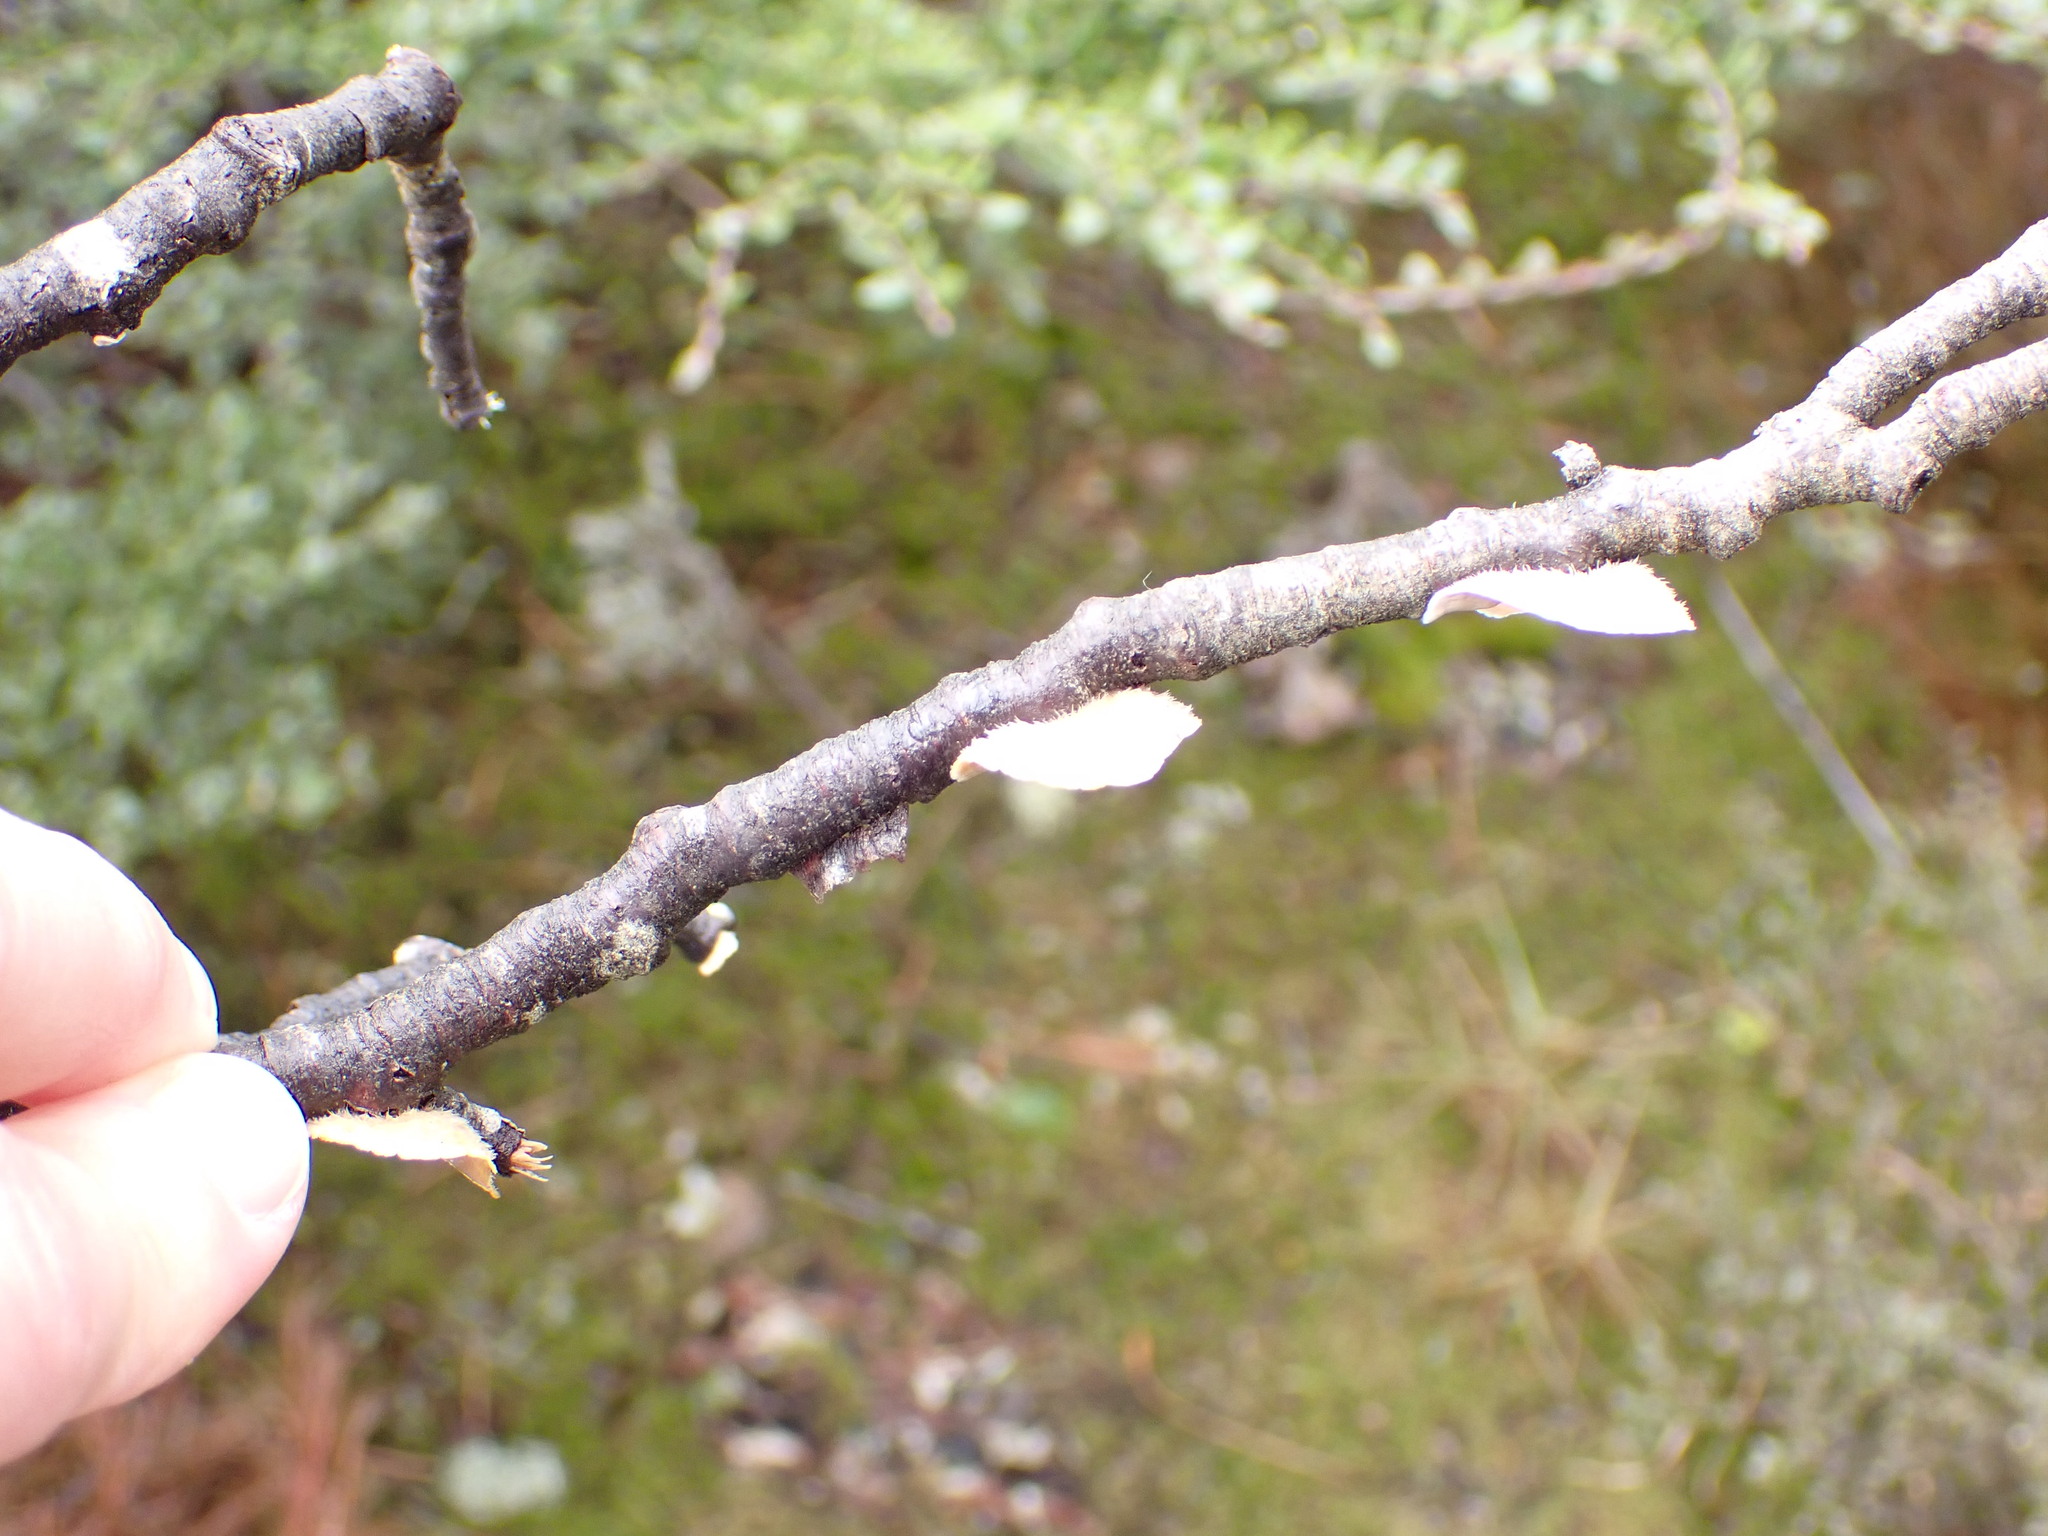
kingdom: Fungi
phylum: Basidiomycota
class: Agaricomycetes
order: Russulales
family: Stereaceae
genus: Stereum
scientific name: Stereum vellereum
